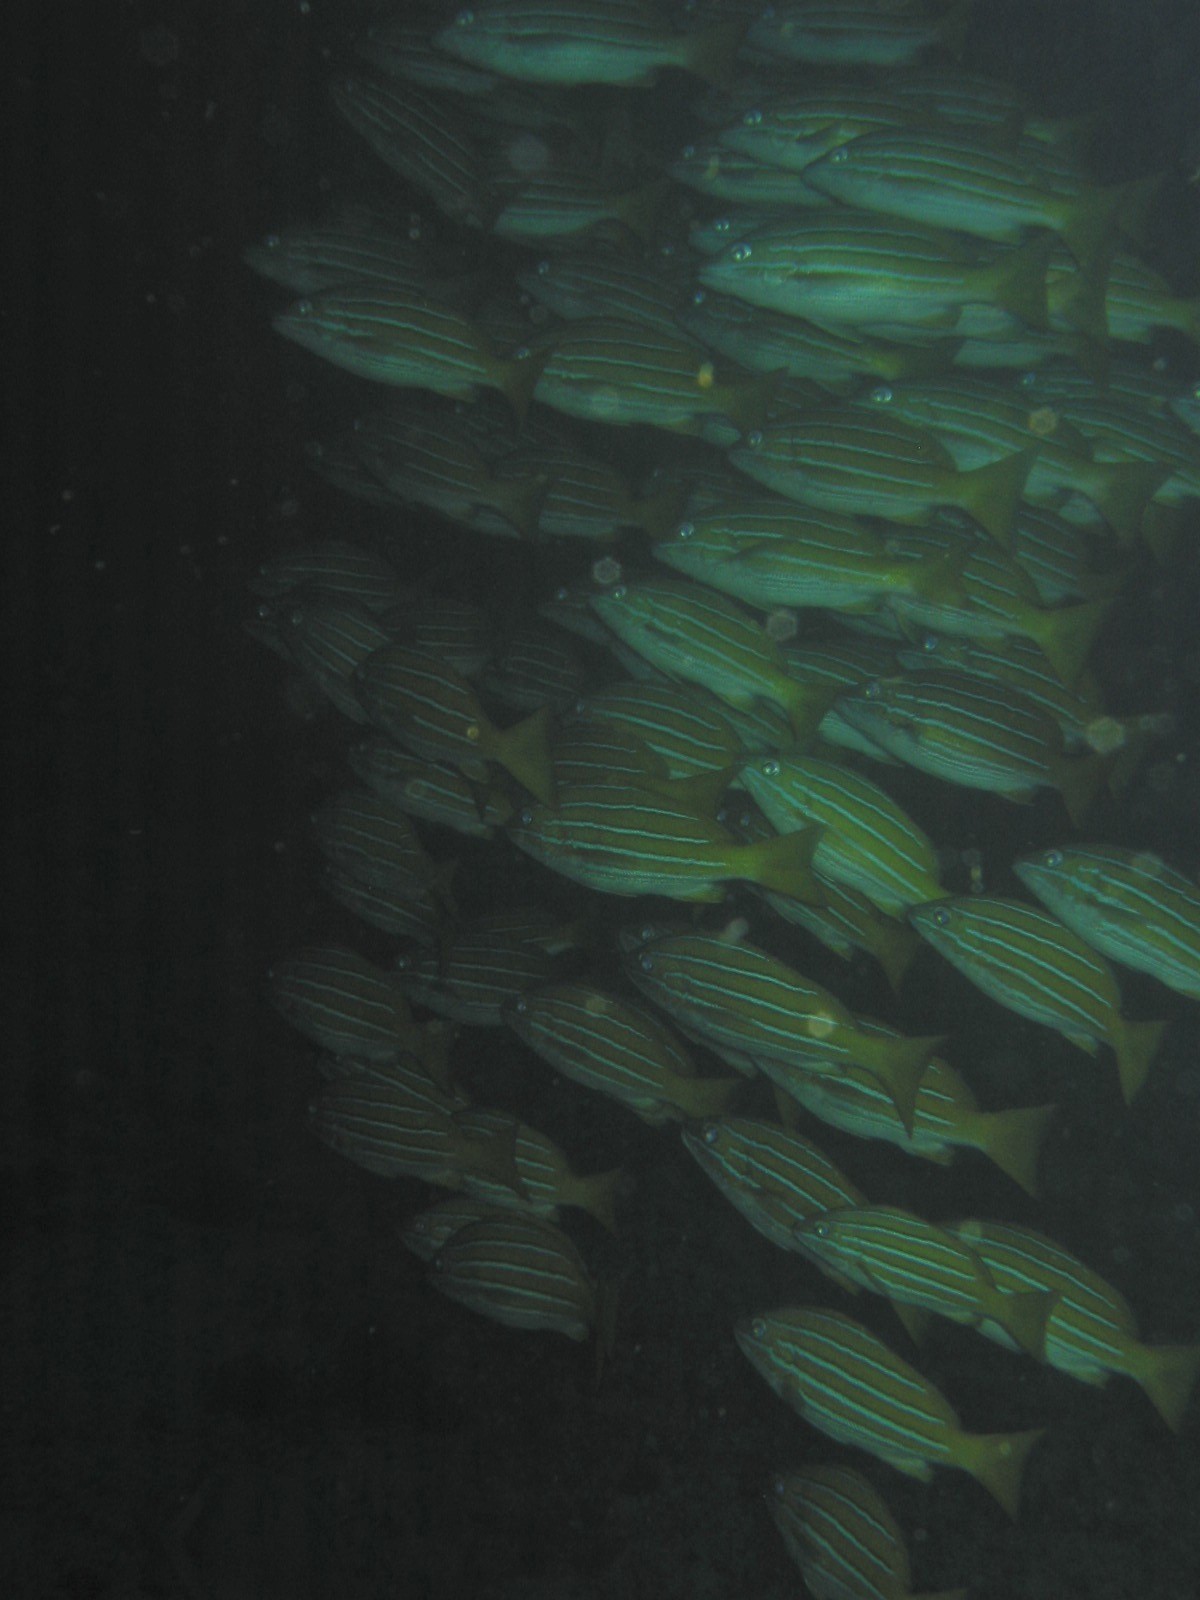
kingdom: Animalia
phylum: Chordata
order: Perciformes
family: Lutjanidae
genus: Lutjanus
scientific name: Lutjanus viridis
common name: Blue and gold snapper
